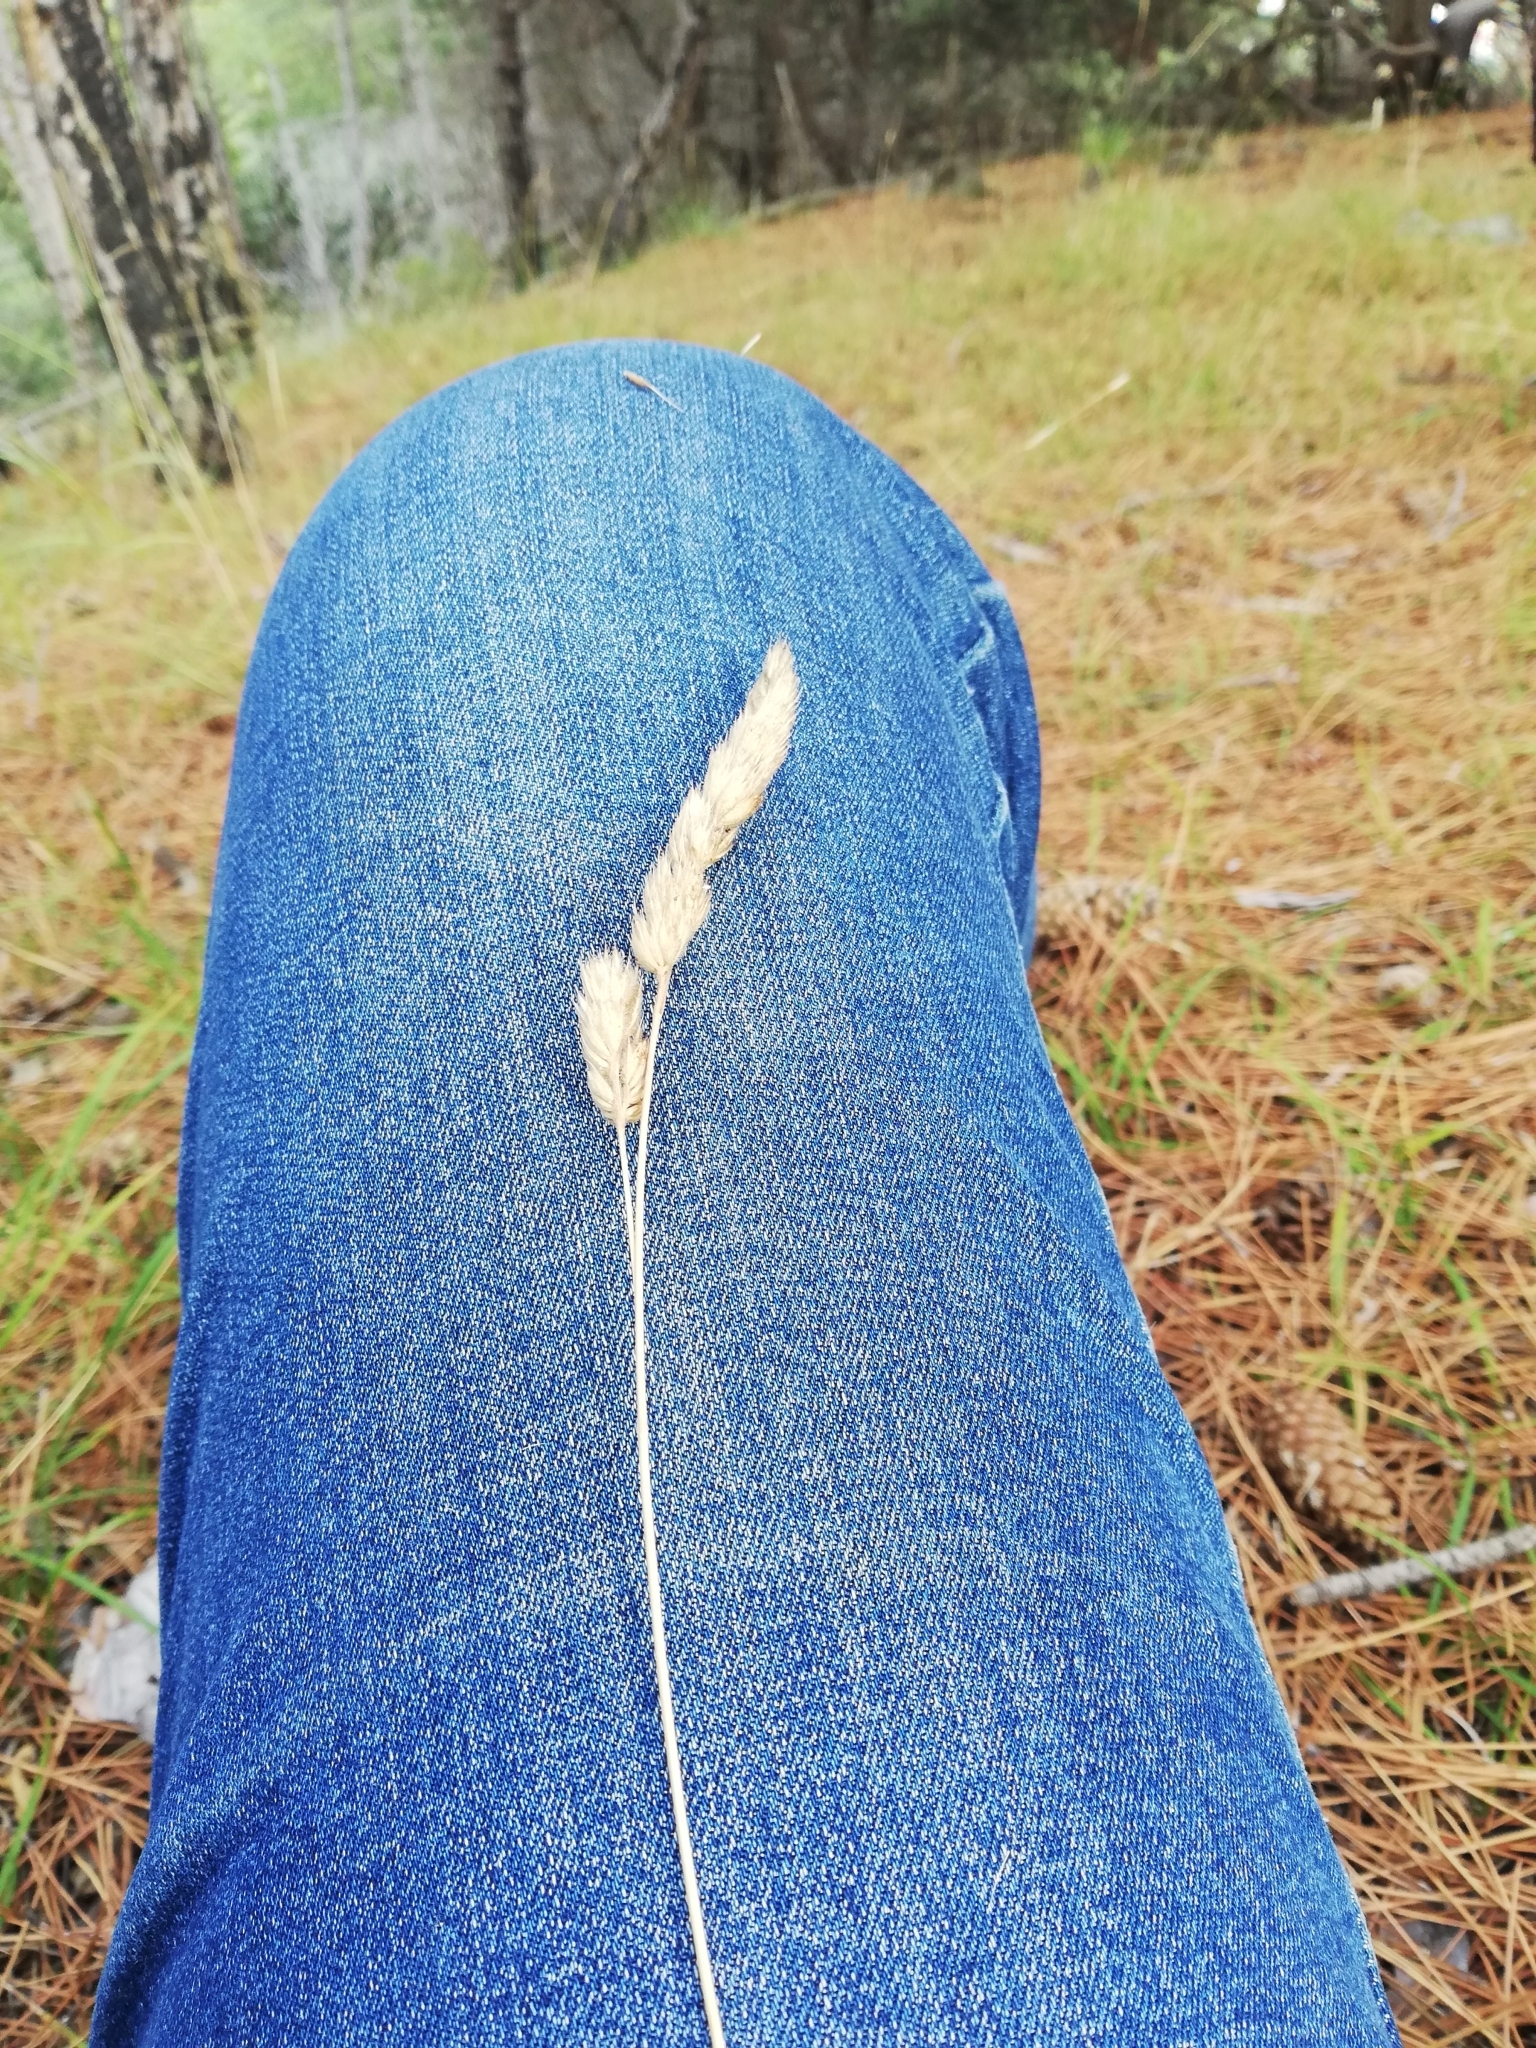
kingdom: Plantae
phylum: Tracheophyta
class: Liliopsida
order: Poales
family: Poaceae
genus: Dactylis
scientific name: Dactylis glomerata
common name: Orchardgrass
